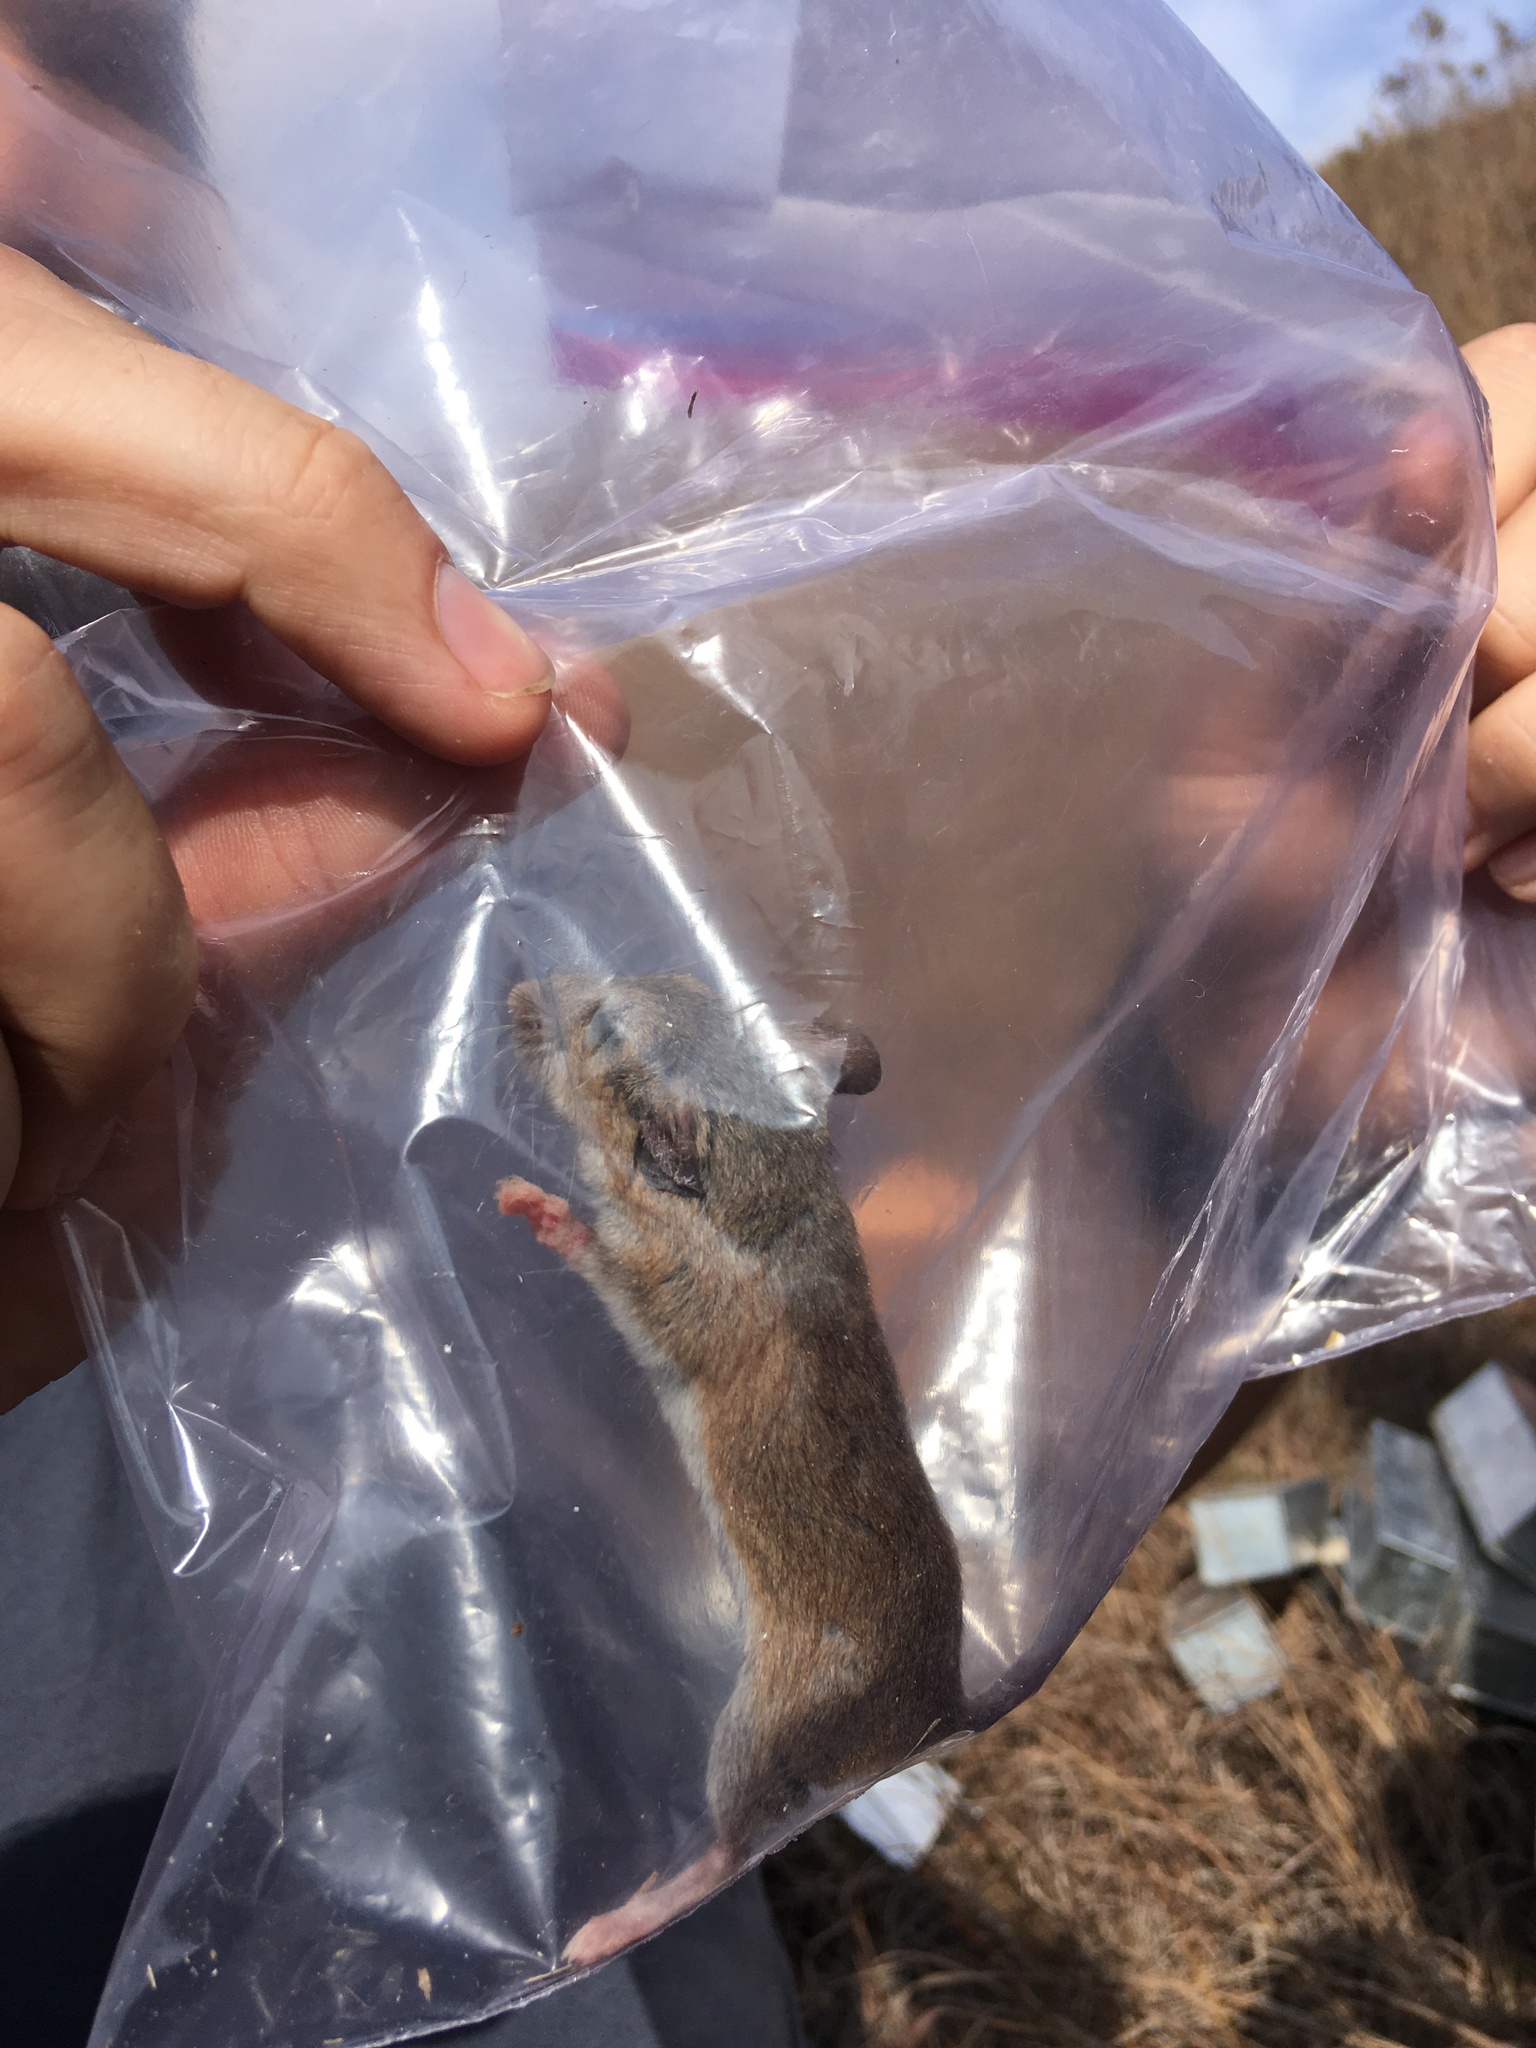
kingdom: Animalia
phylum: Chordata
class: Mammalia
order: Rodentia
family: Cricetidae
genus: Peromyscus
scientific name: Peromyscus leucopus
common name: White-footed deermouse
